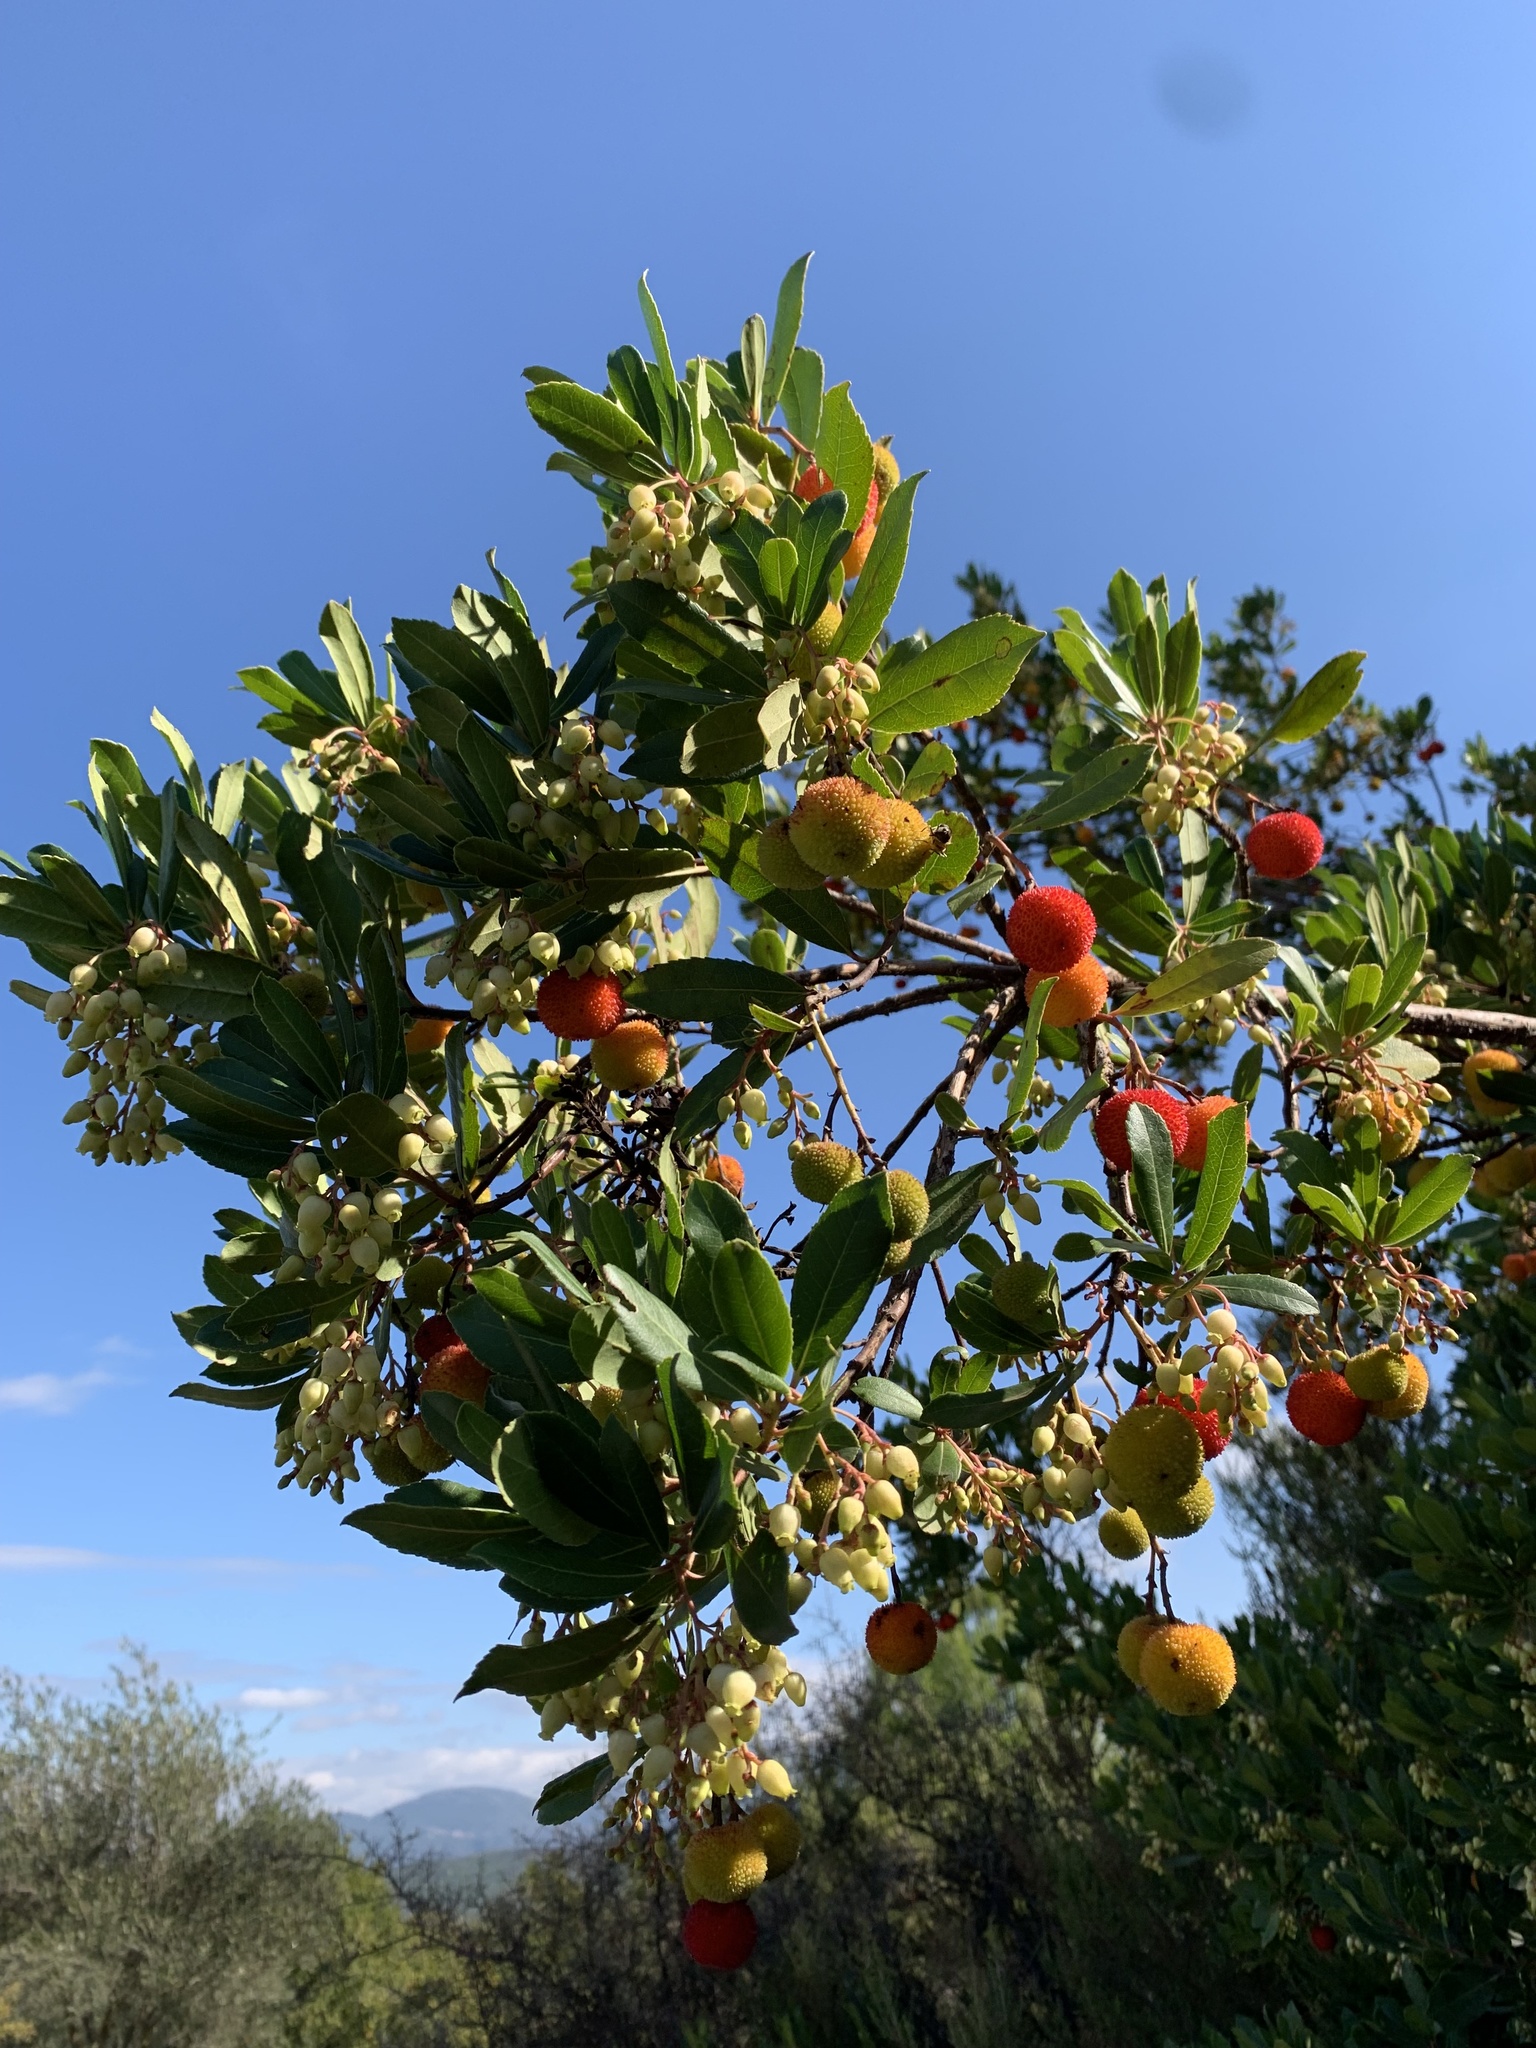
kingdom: Plantae
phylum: Tracheophyta
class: Magnoliopsida
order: Ericales
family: Ericaceae
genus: Arbutus
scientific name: Arbutus unedo
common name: Strawberry-tree
